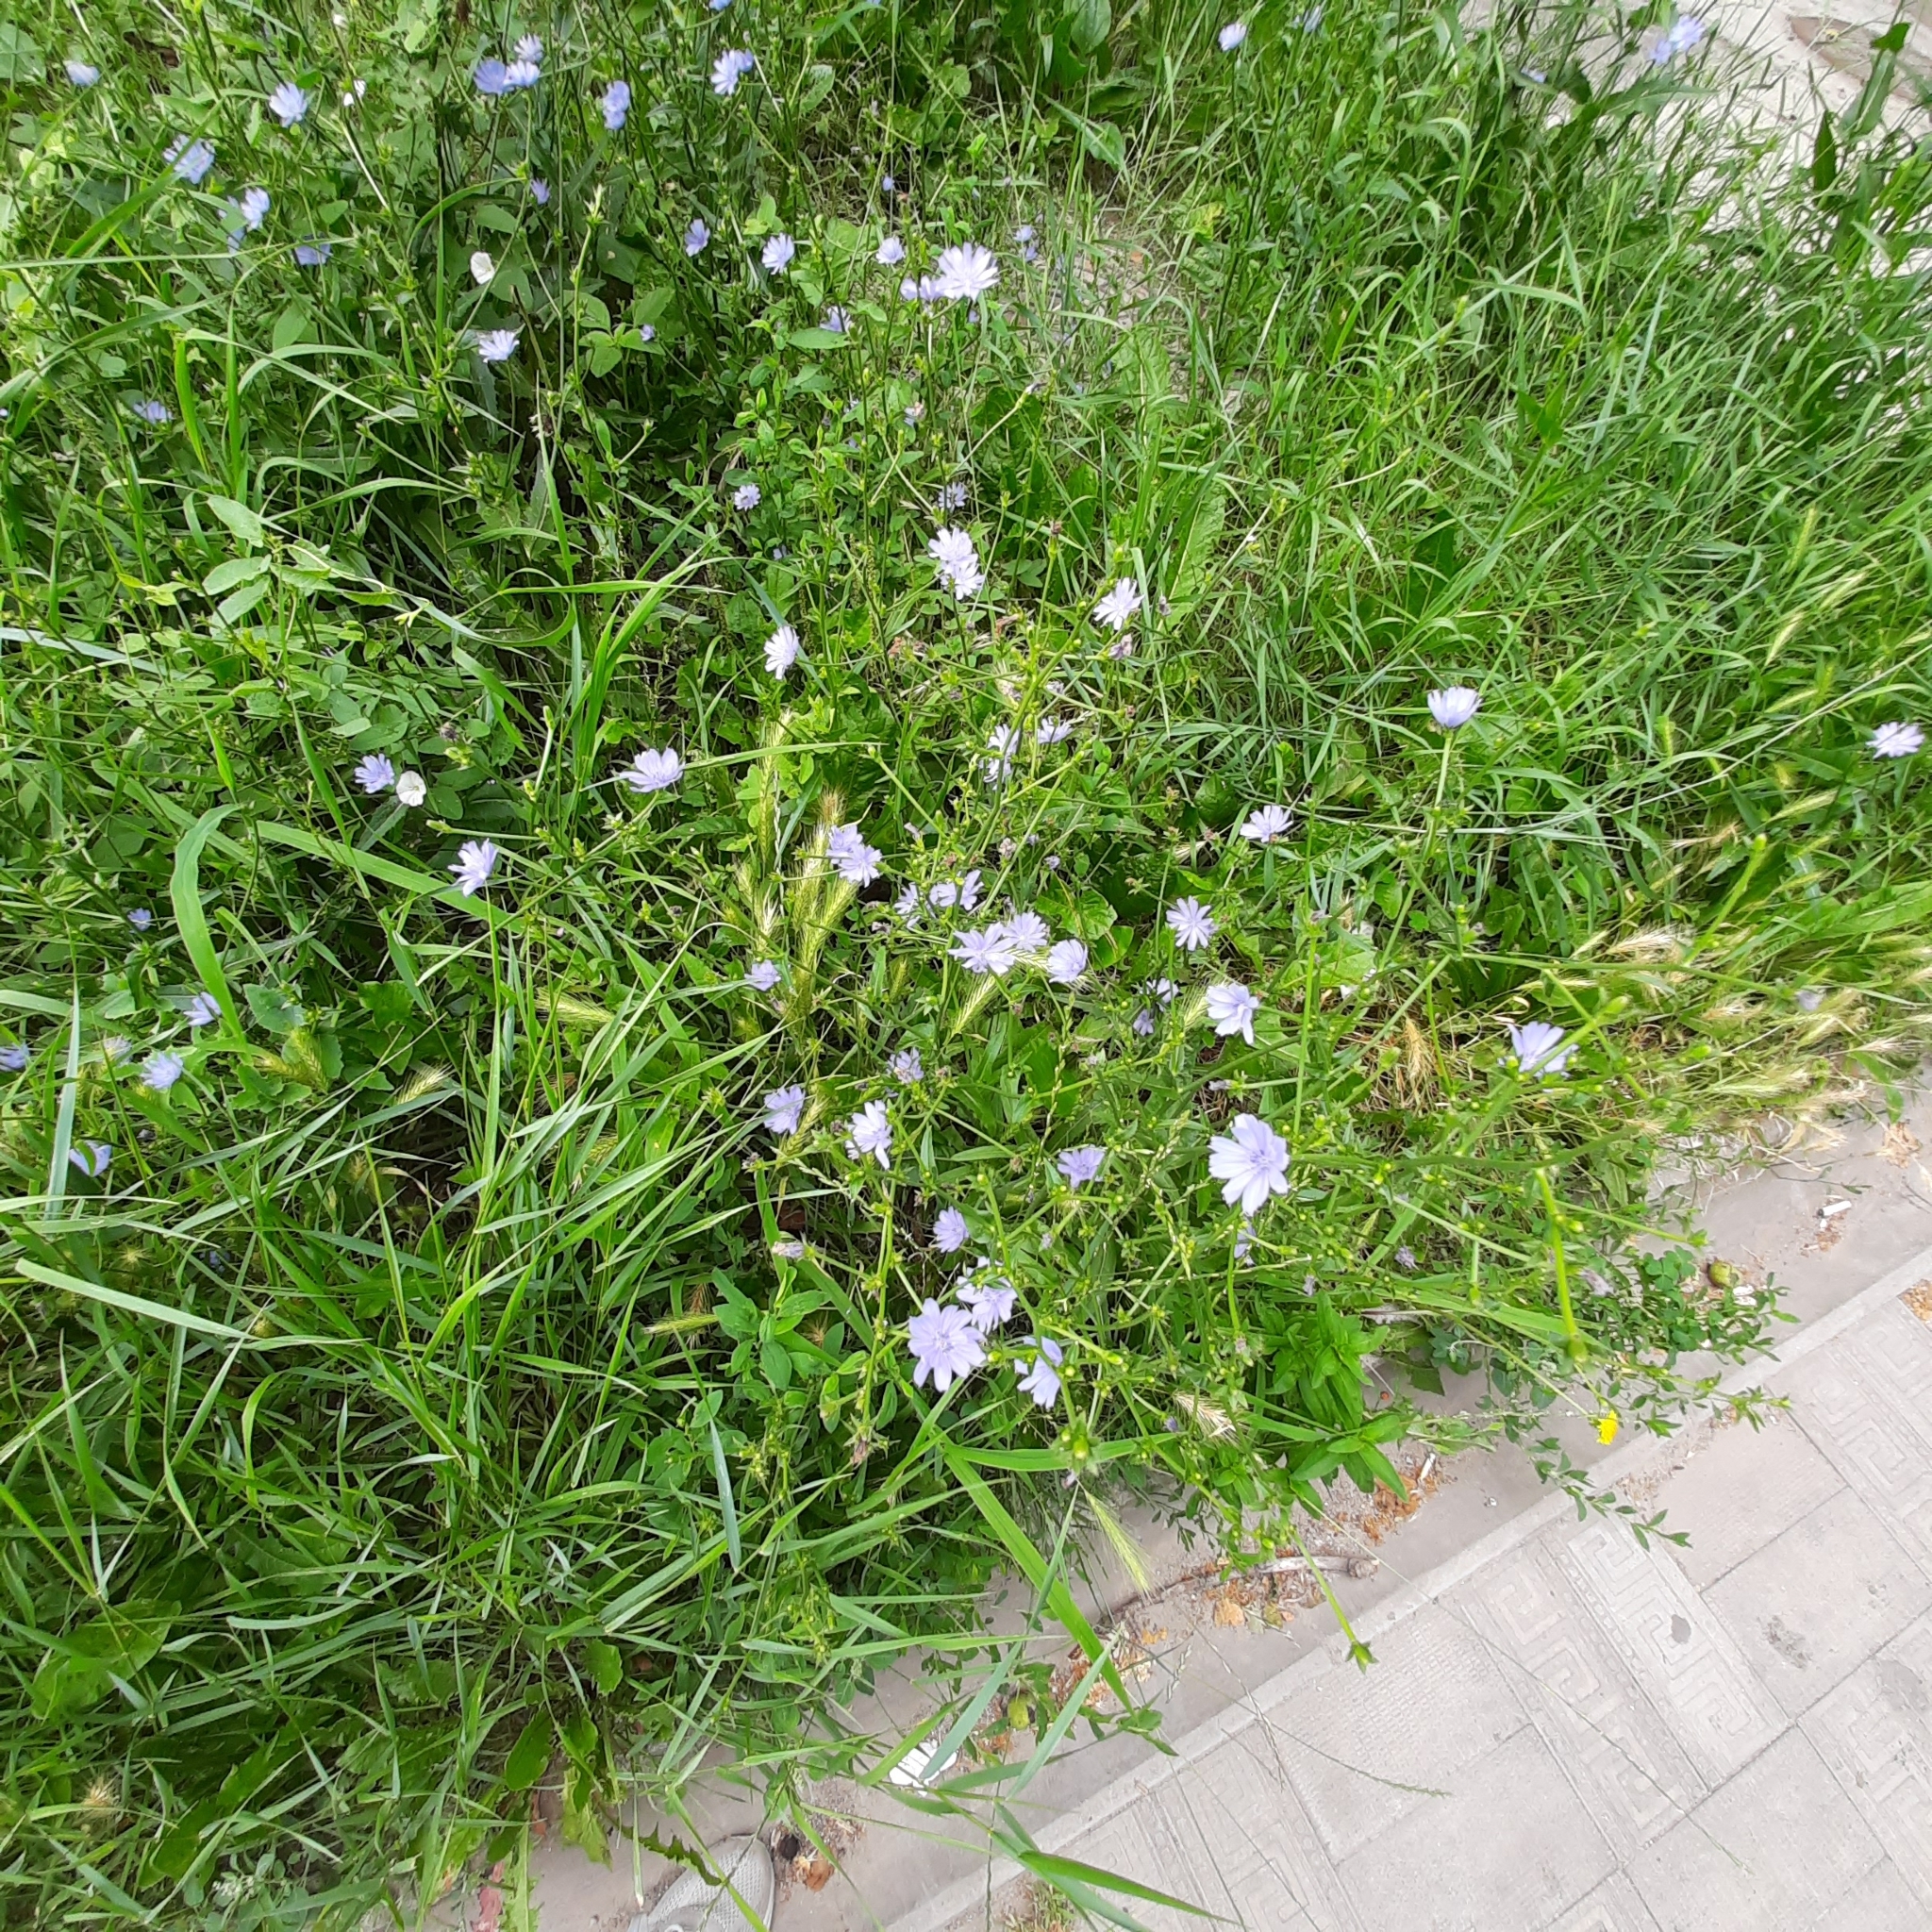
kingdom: Plantae
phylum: Tracheophyta
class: Magnoliopsida
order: Asterales
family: Asteraceae
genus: Cichorium
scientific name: Cichorium intybus
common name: Chicory
